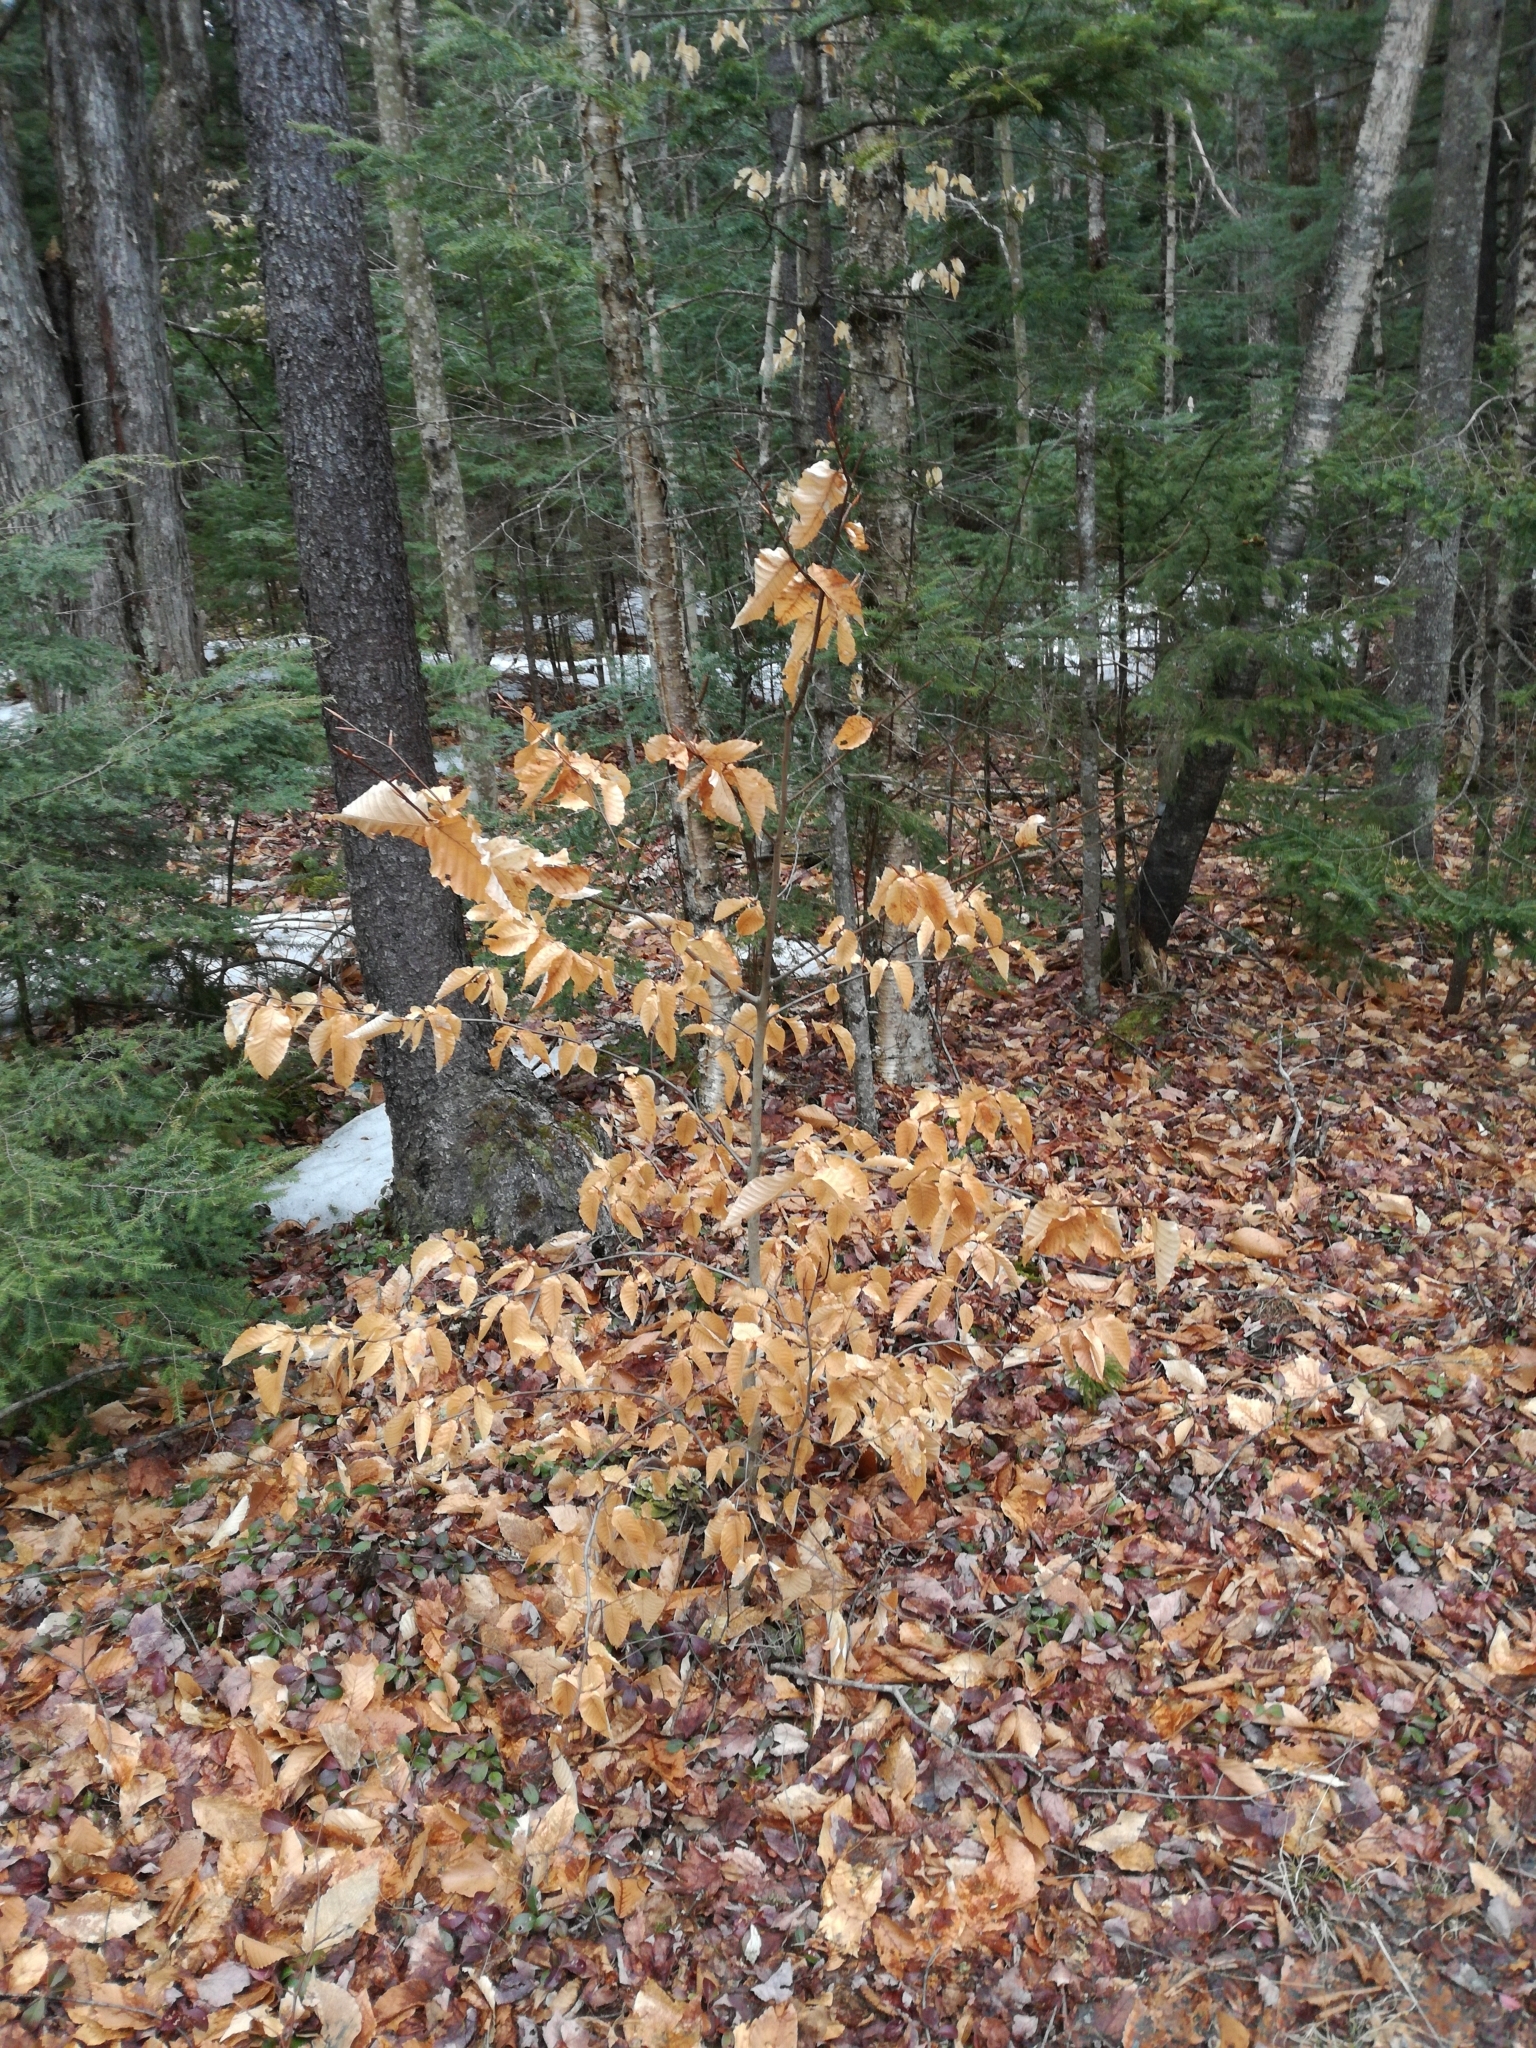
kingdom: Plantae
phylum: Tracheophyta
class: Magnoliopsida
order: Fagales
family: Fagaceae
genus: Fagus
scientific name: Fagus grandifolia
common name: American beech
